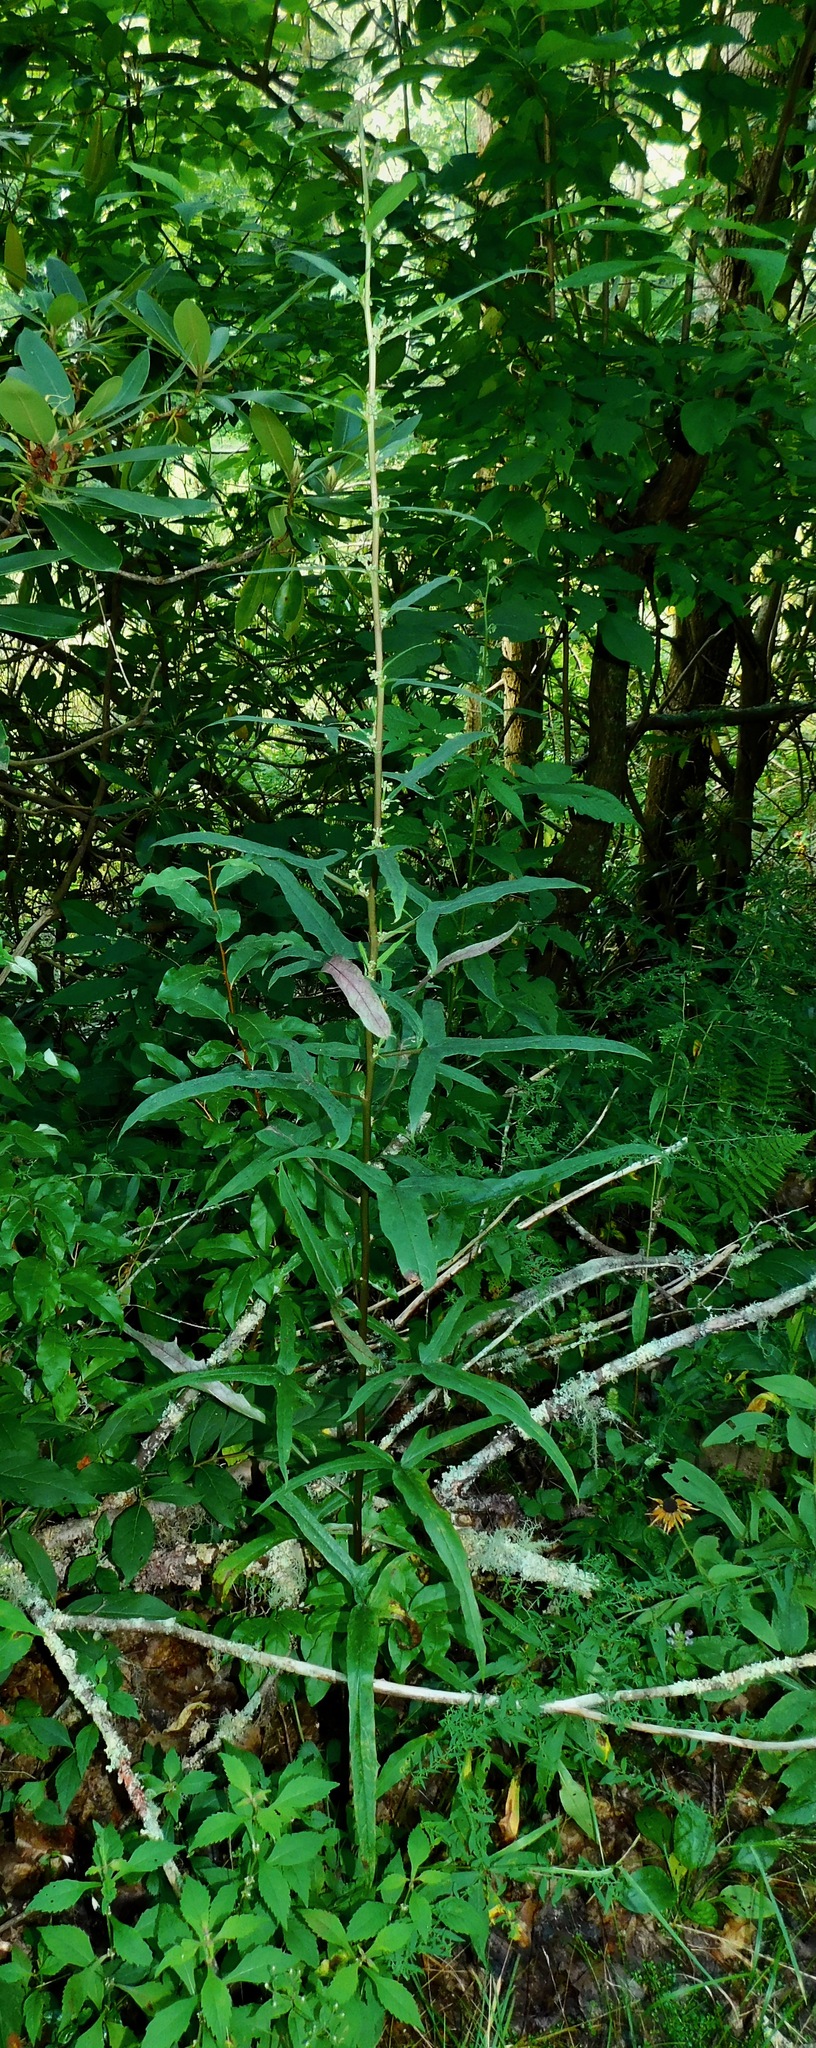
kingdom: Plantae
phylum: Tracheophyta
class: Magnoliopsida
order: Asterales
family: Asteraceae
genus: Nabalus
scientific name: Nabalus trifoliolatus
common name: Gall-of-the-earth
